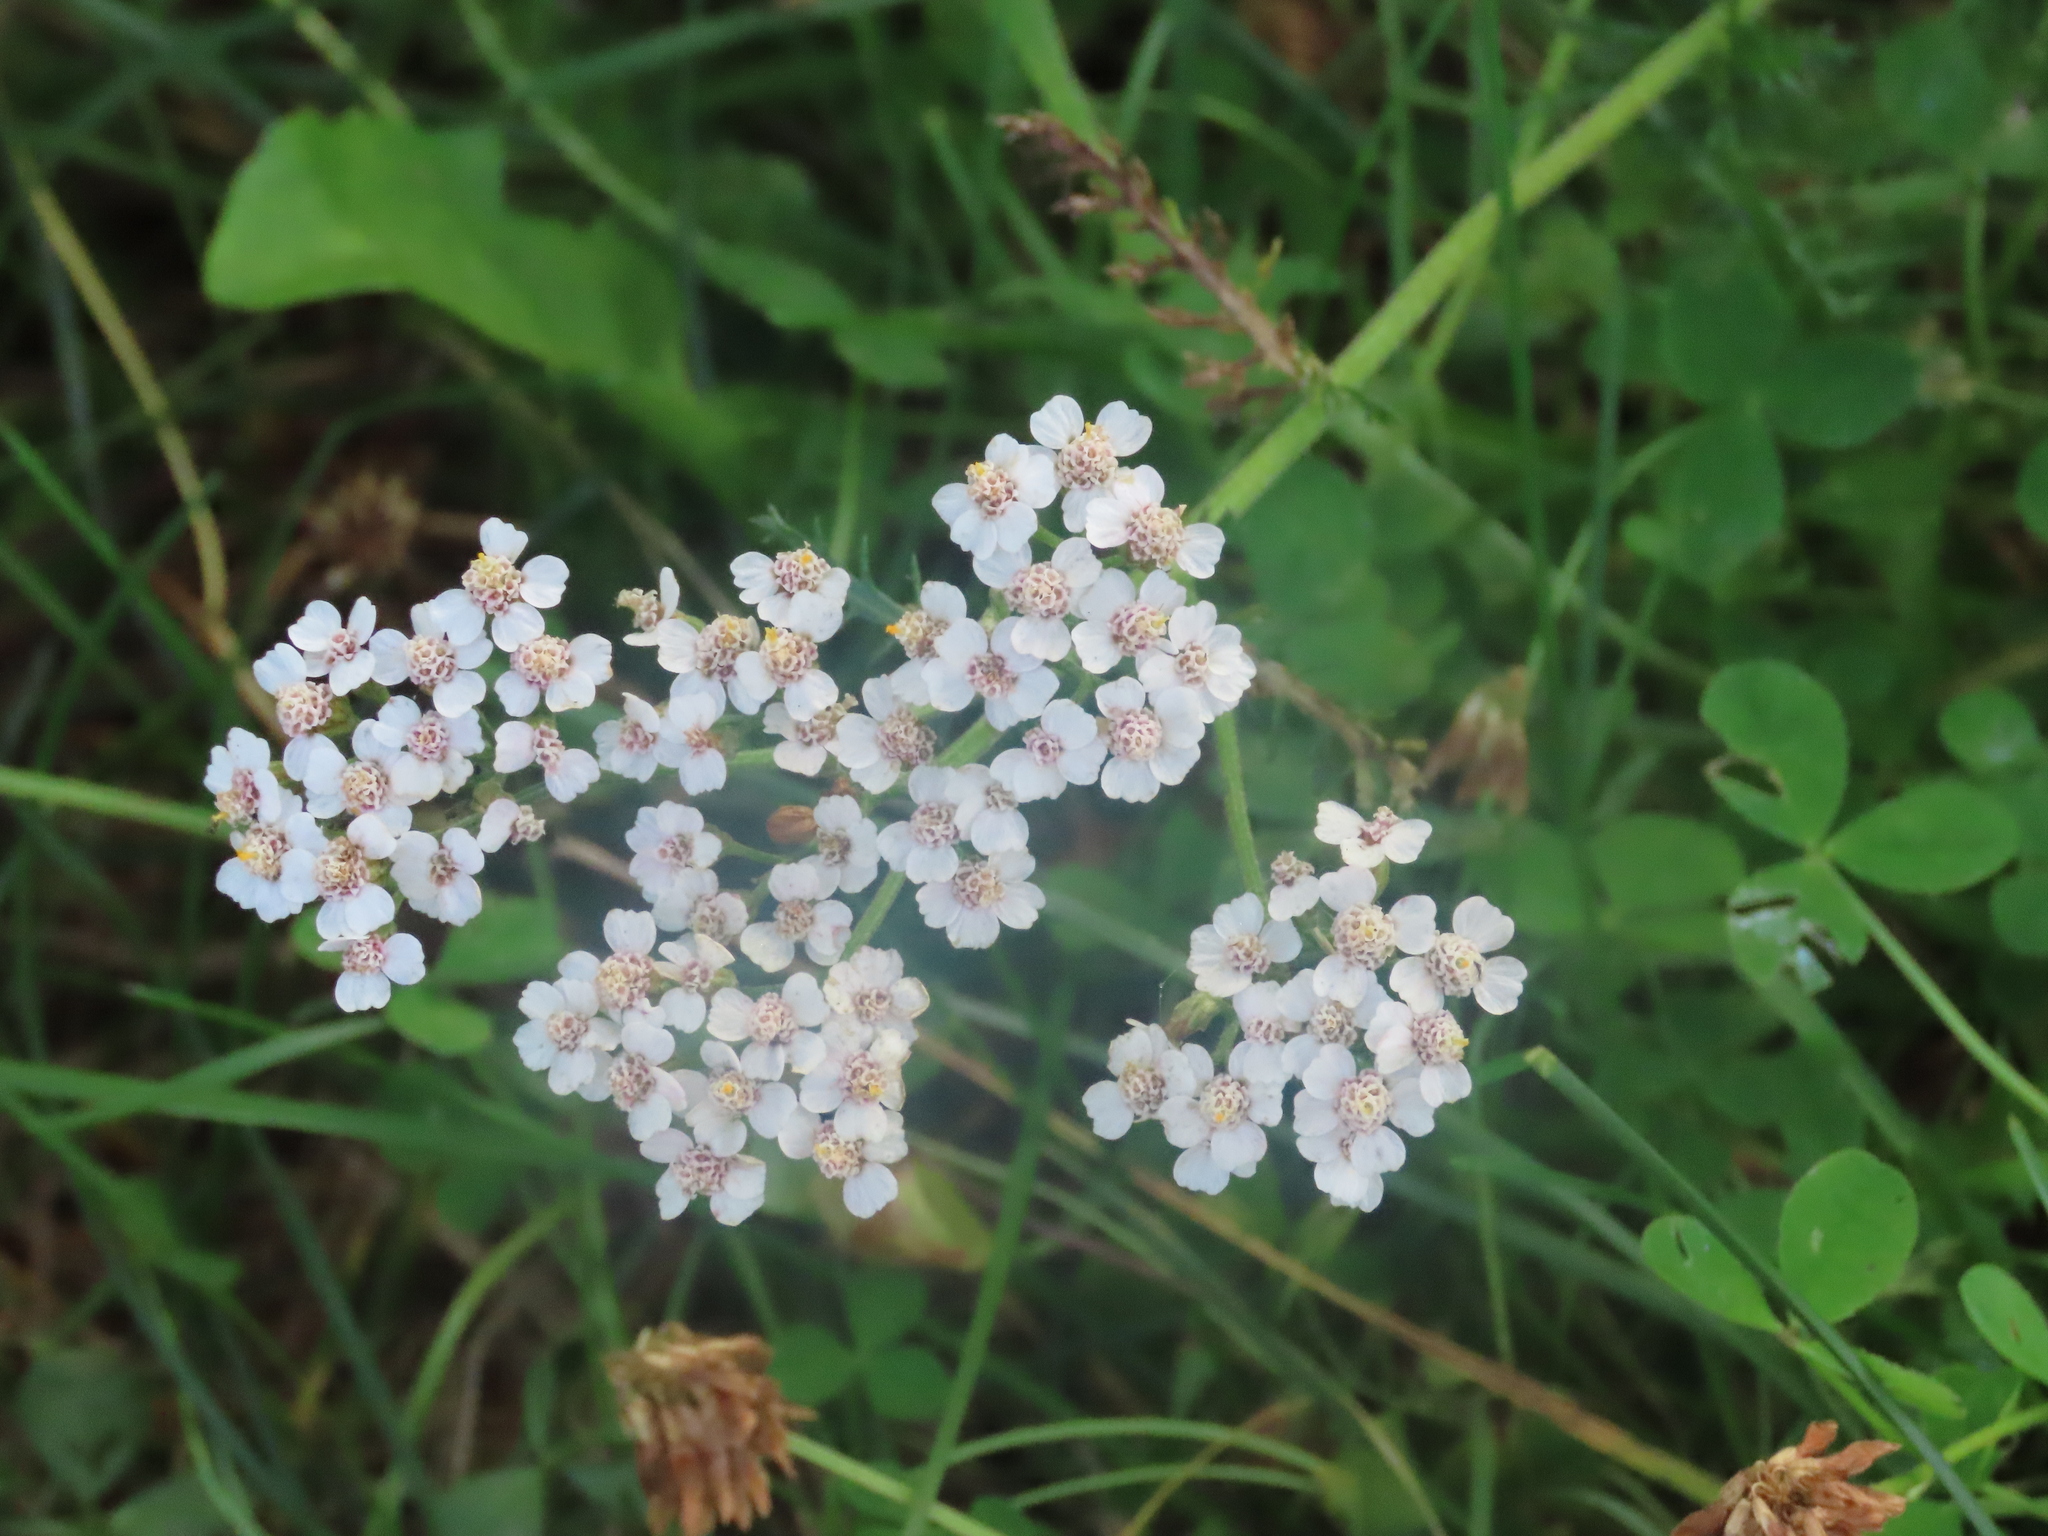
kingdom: Plantae
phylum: Tracheophyta
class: Magnoliopsida
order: Asterales
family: Asteraceae
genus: Achillea
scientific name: Achillea millefolium
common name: Yarrow
